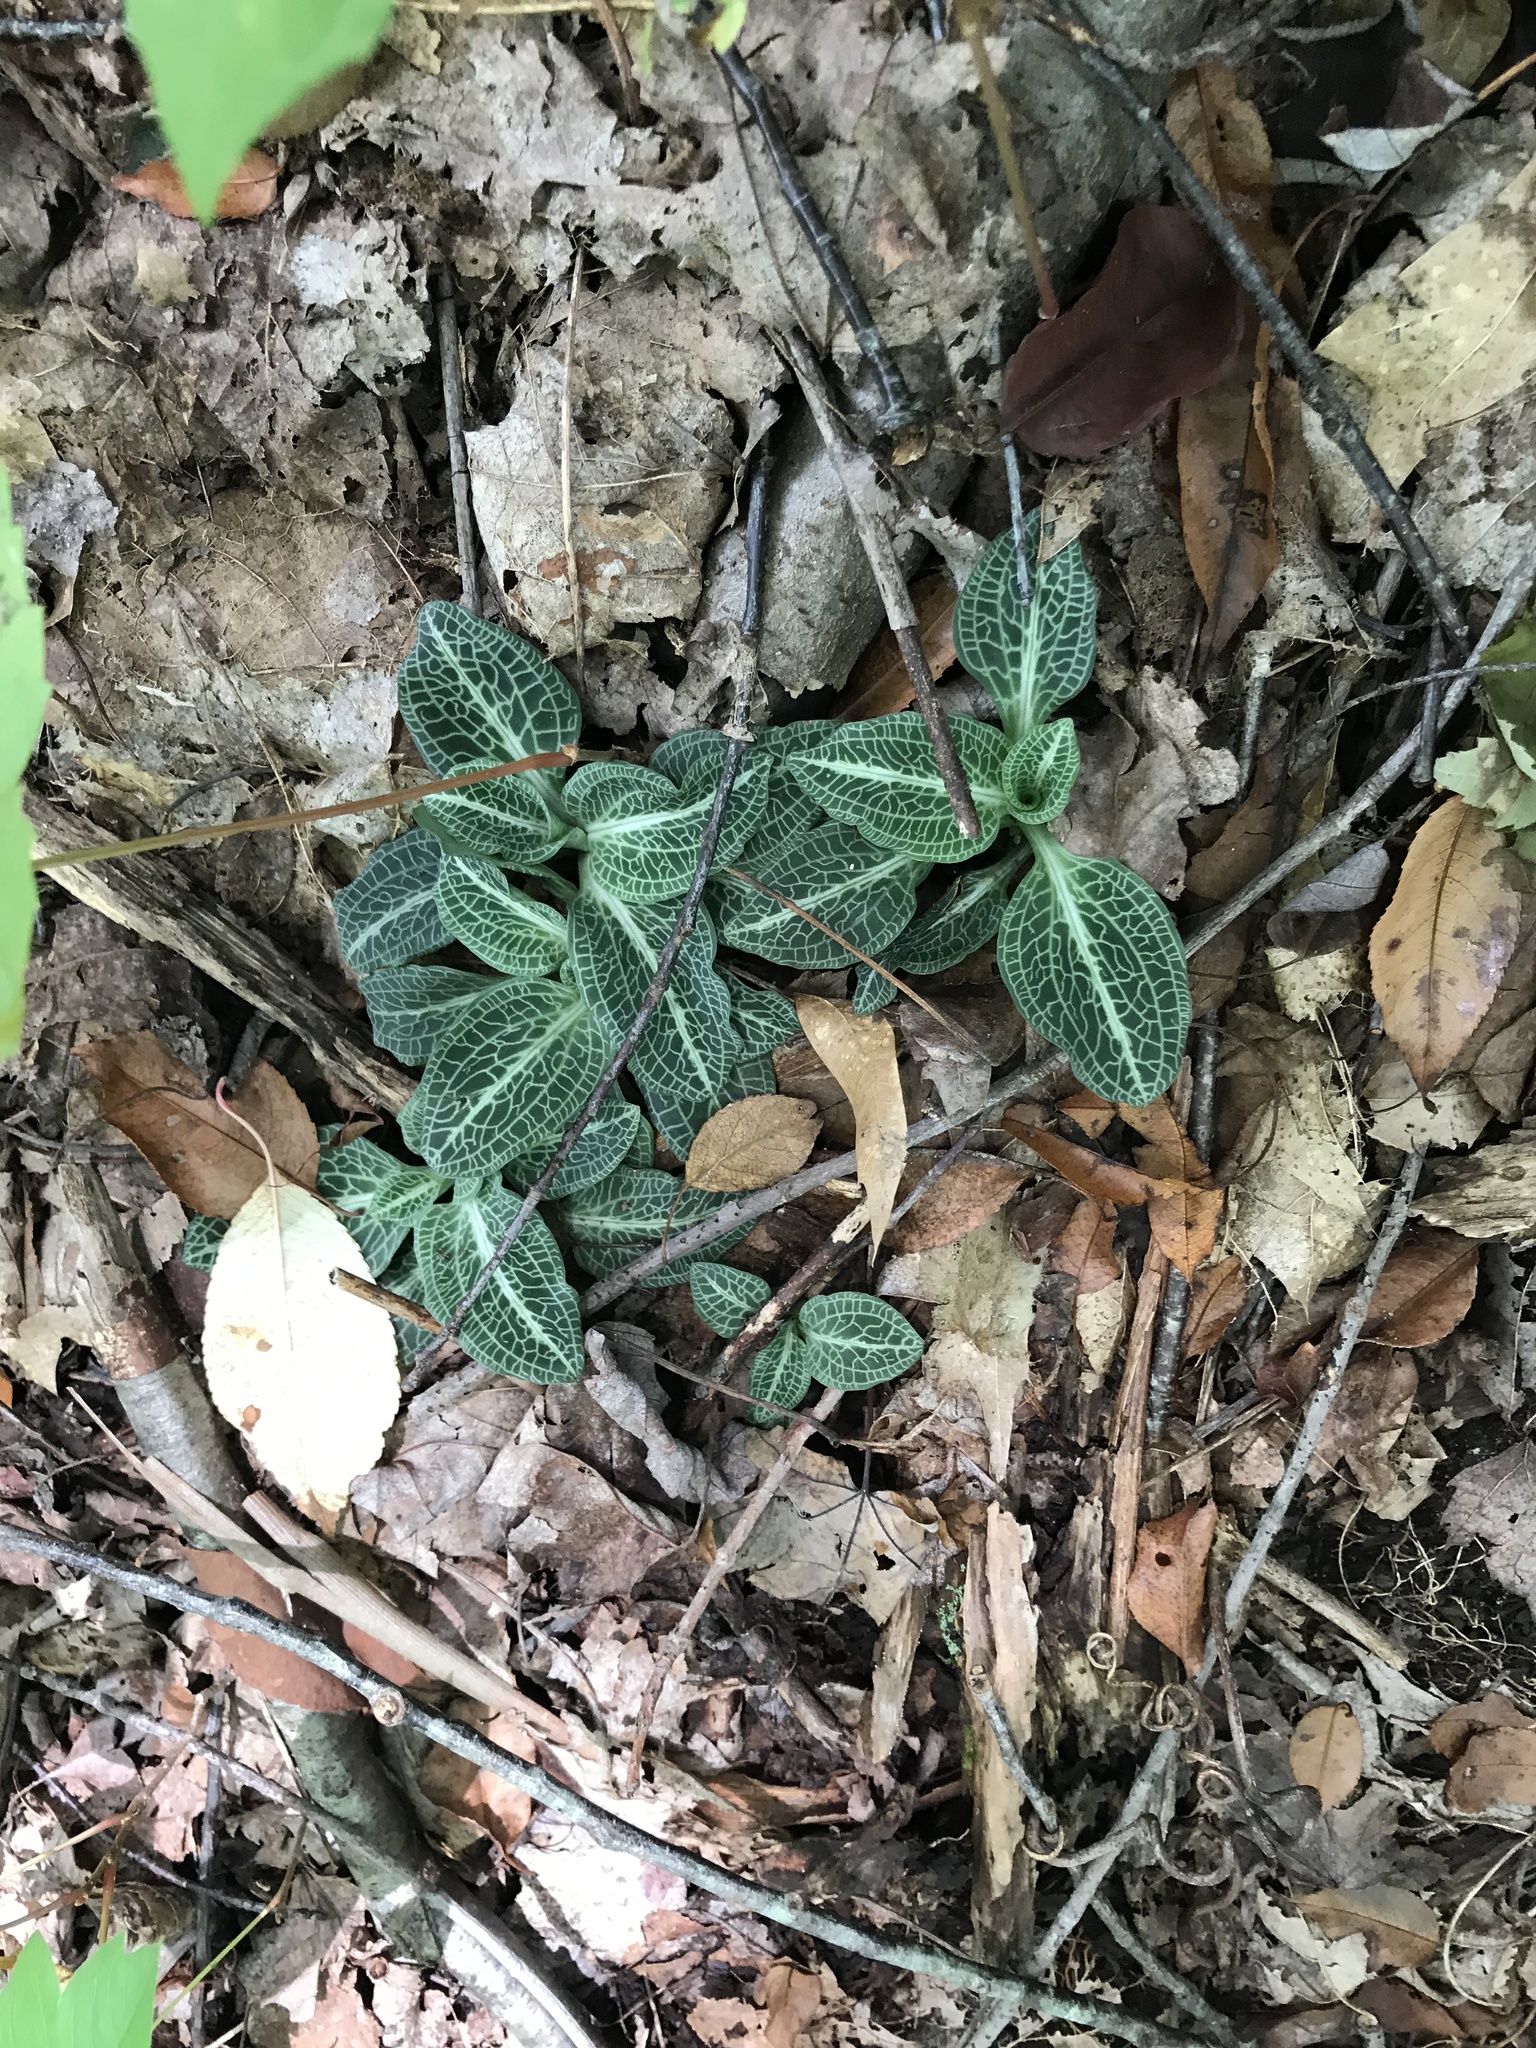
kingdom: Plantae
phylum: Tracheophyta
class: Liliopsida
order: Asparagales
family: Orchidaceae
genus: Goodyera
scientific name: Goodyera pubescens
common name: Downy rattlesnake-plantain
